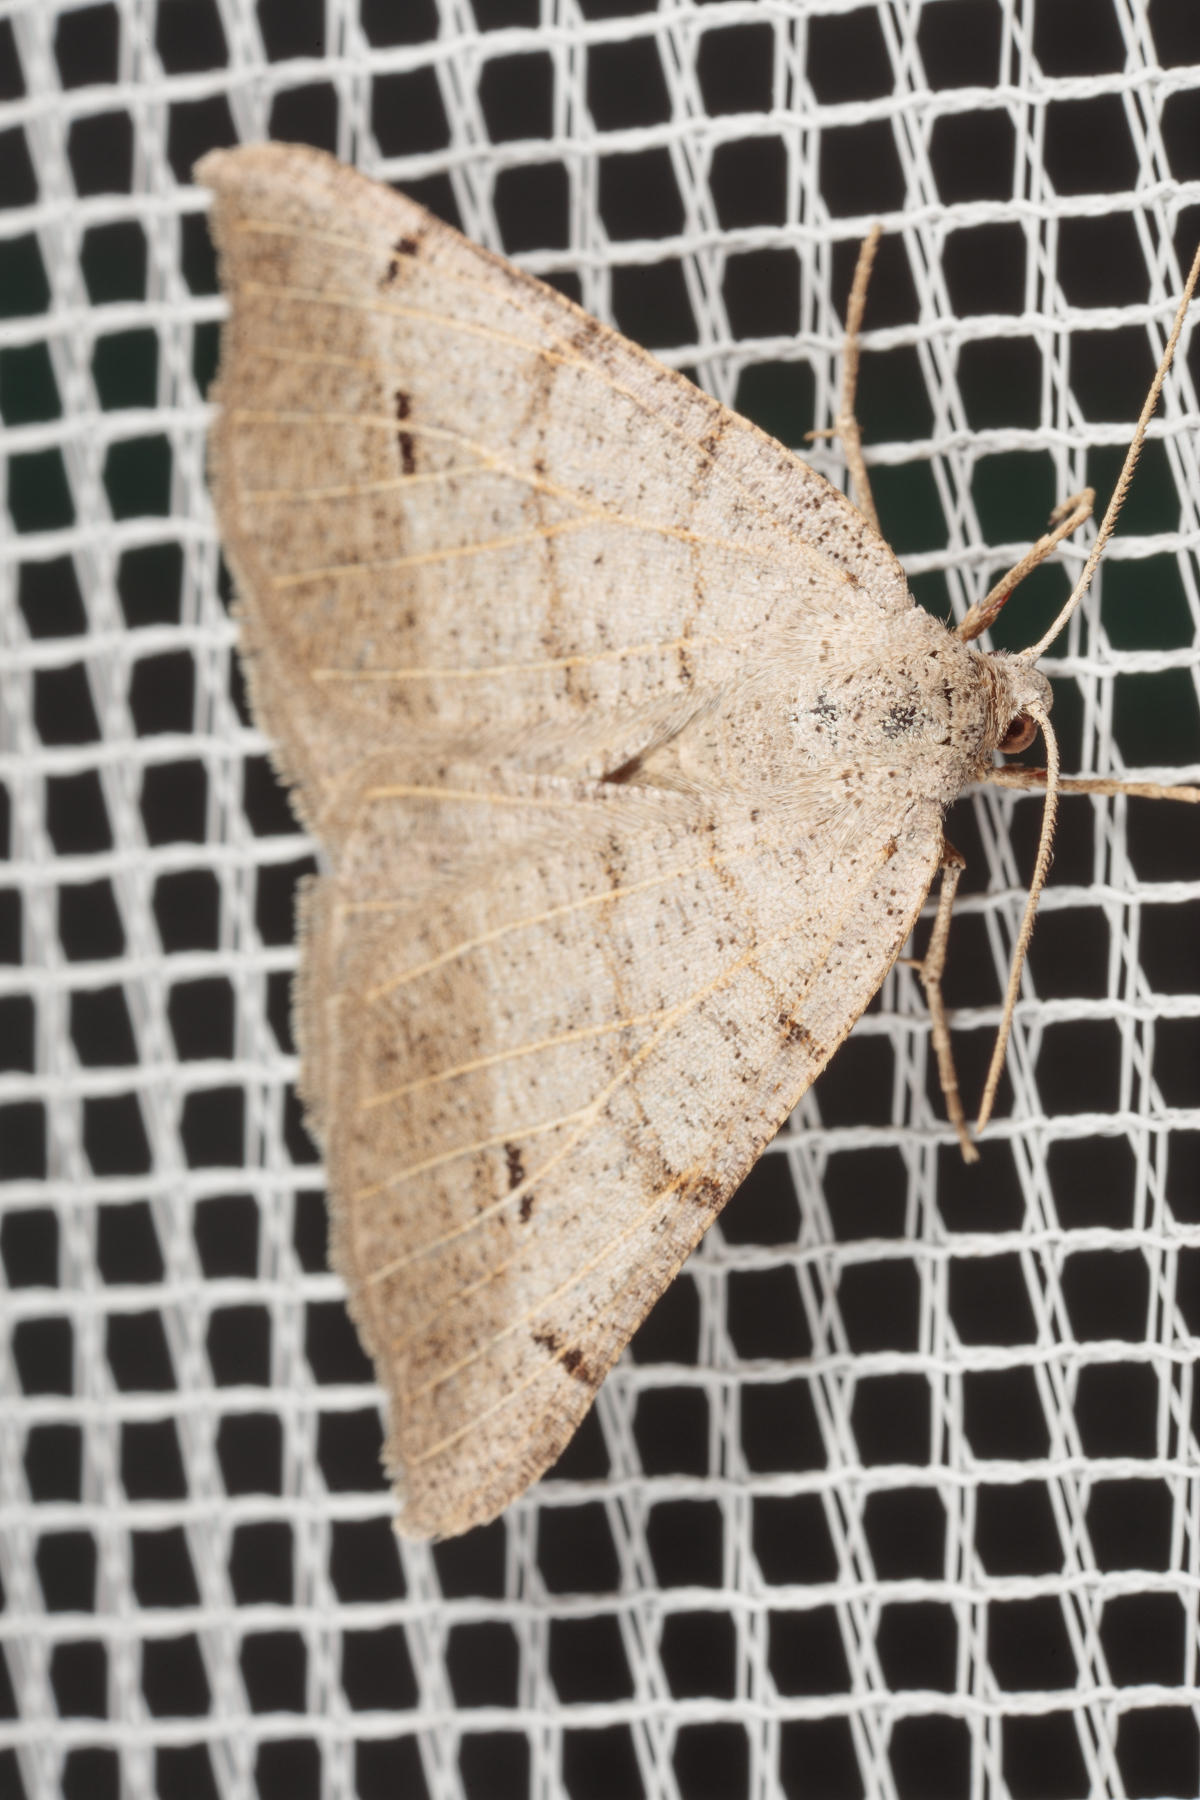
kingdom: Animalia
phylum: Arthropoda
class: Insecta
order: Lepidoptera
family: Geometridae
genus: Isturgia
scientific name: Isturgia dislocaria
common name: Pale-viened enconista
